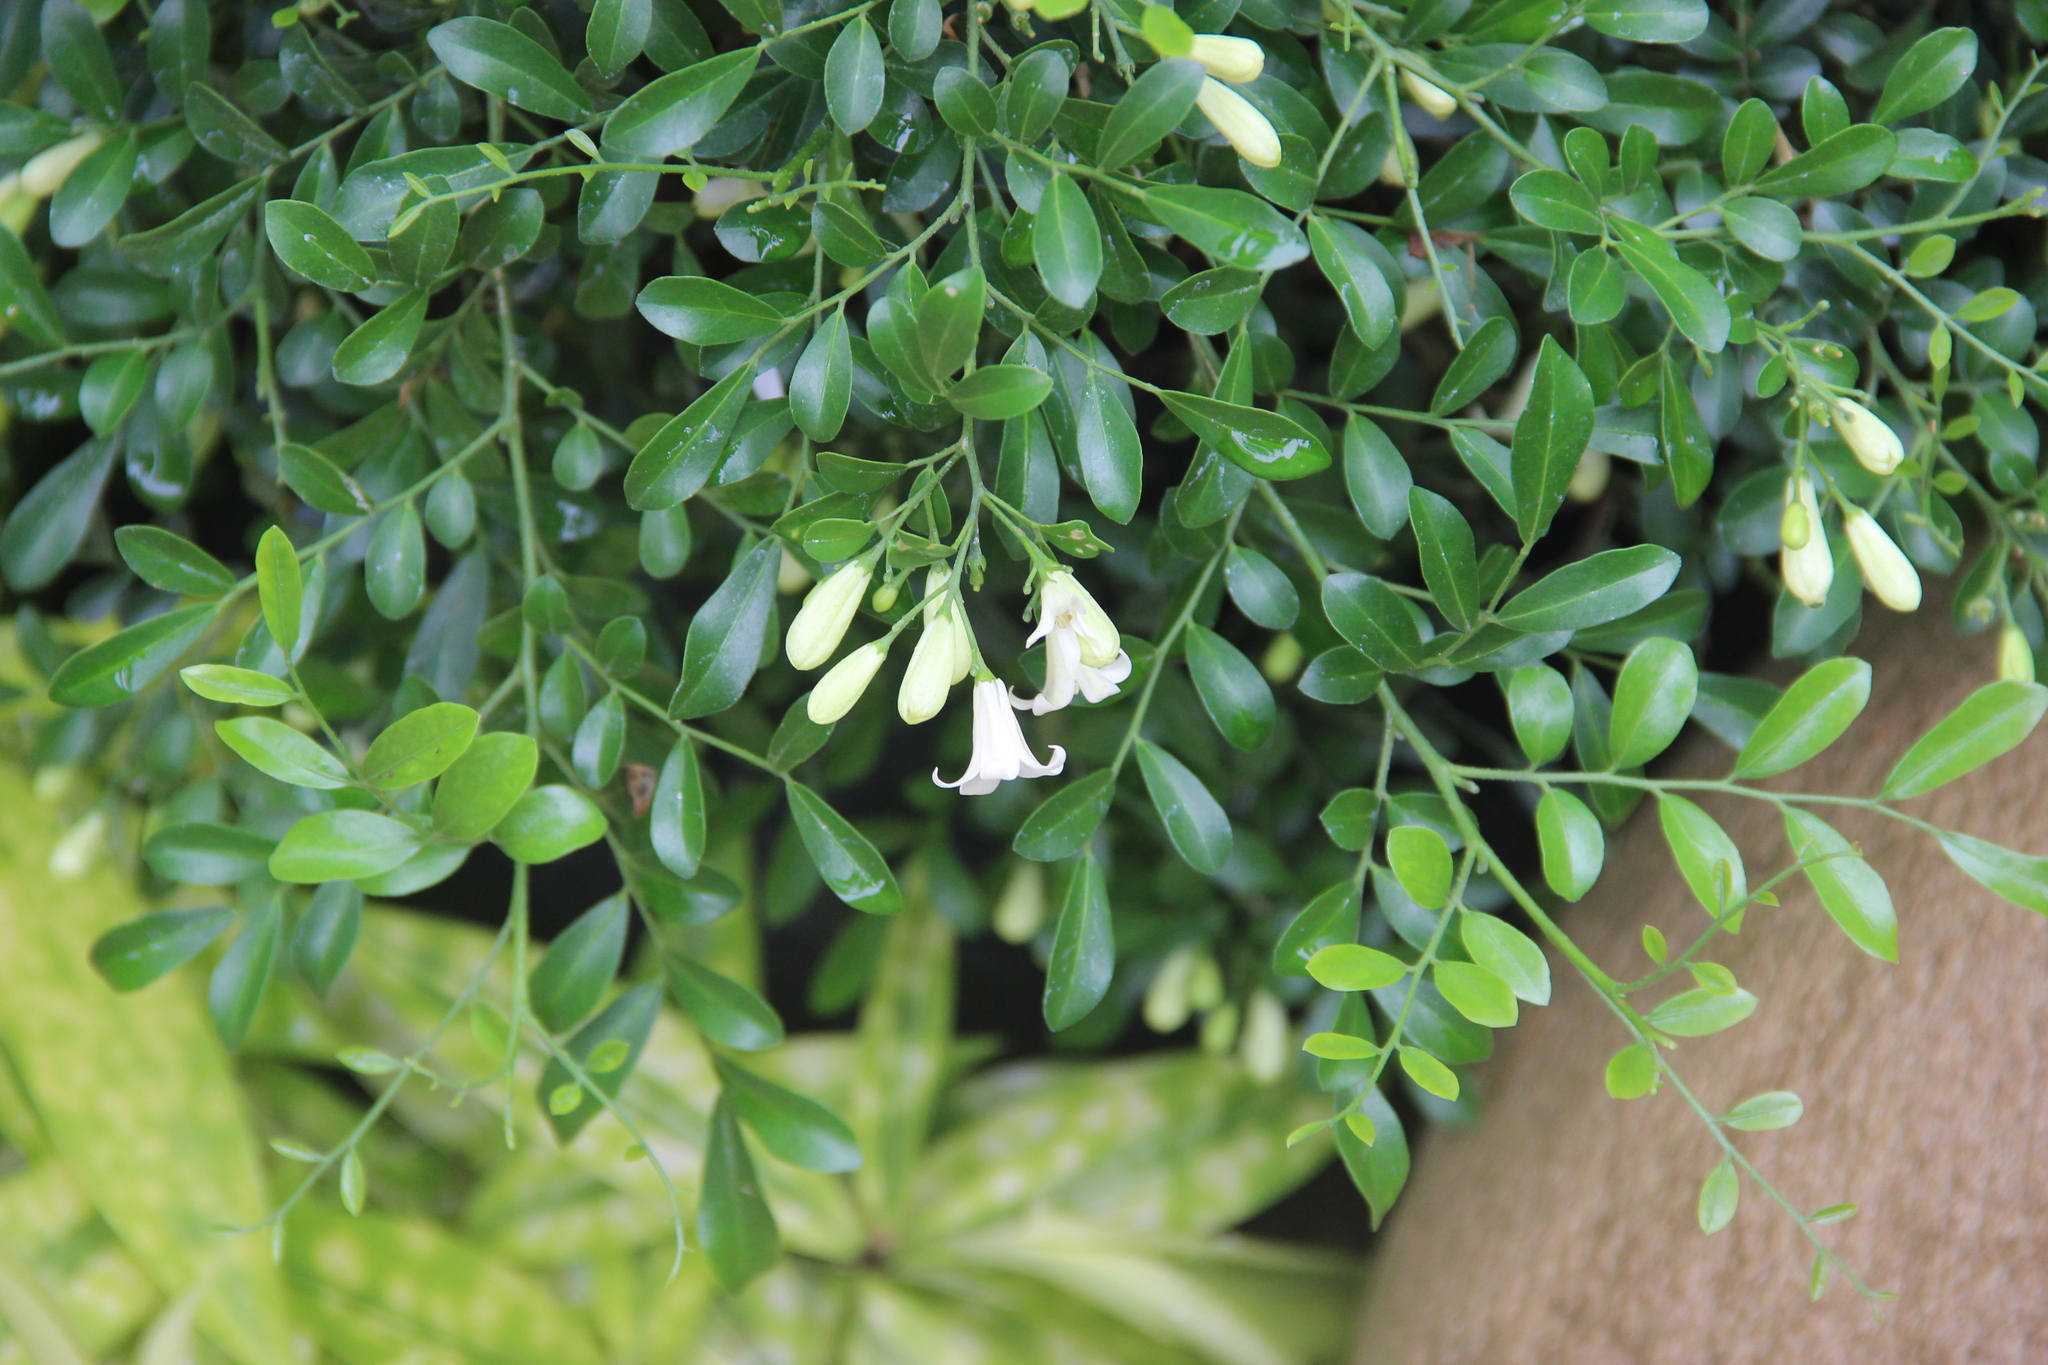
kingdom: Plantae
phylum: Tracheophyta
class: Magnoliopsida
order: Sapindales
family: Rutaceae
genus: Murraya
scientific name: Murraya paniculata
